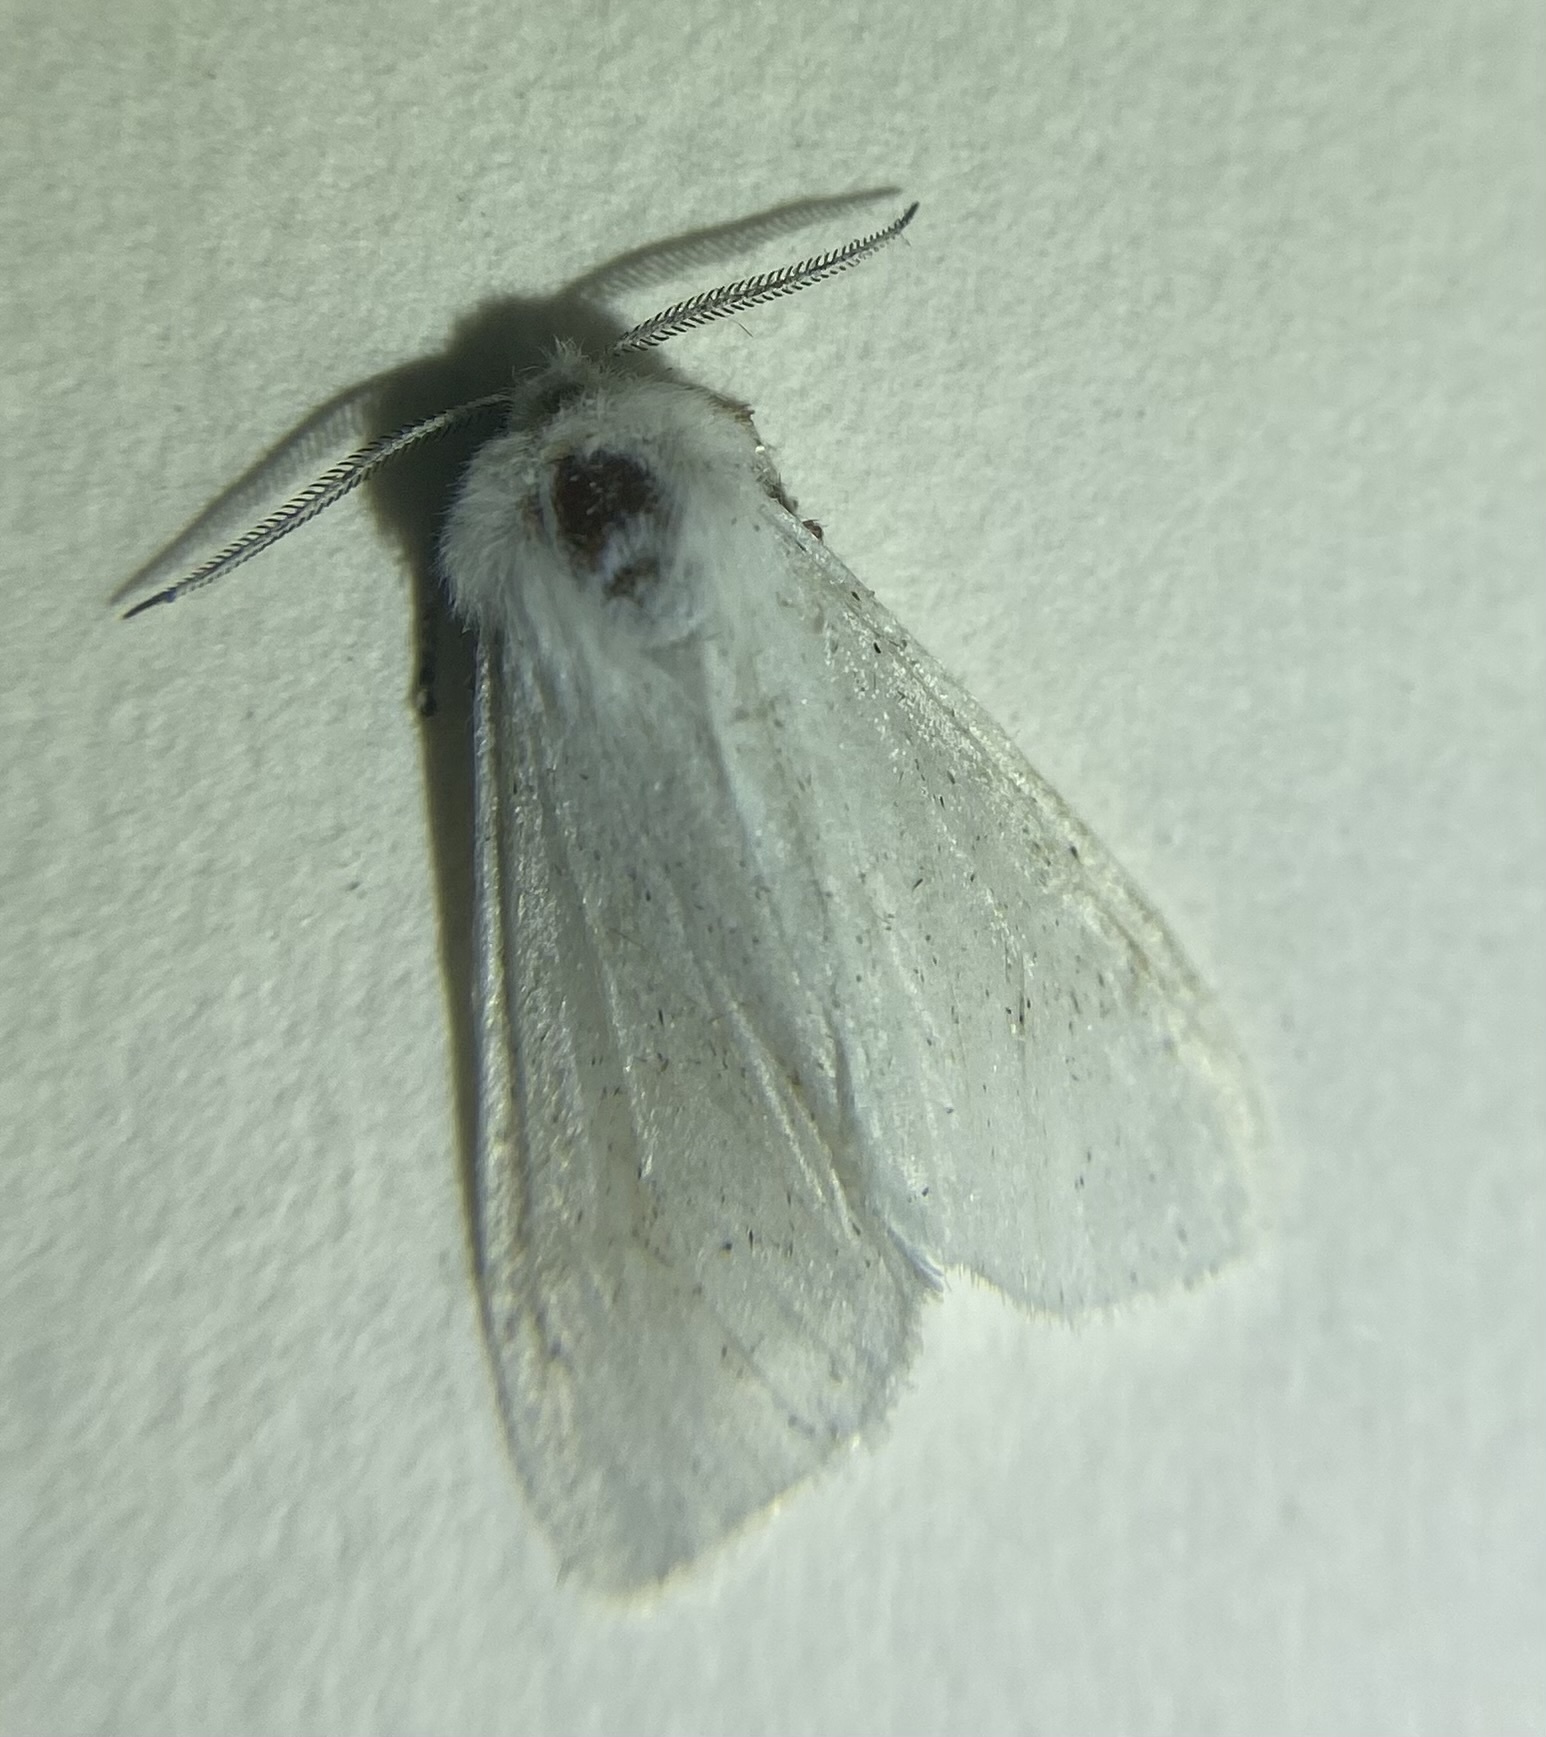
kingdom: Animalia
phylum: Arthropoda
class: Insecta
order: Lepidoptera
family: Erebidae
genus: Hyphantria
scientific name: Hyphantria cunea
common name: American white moth
